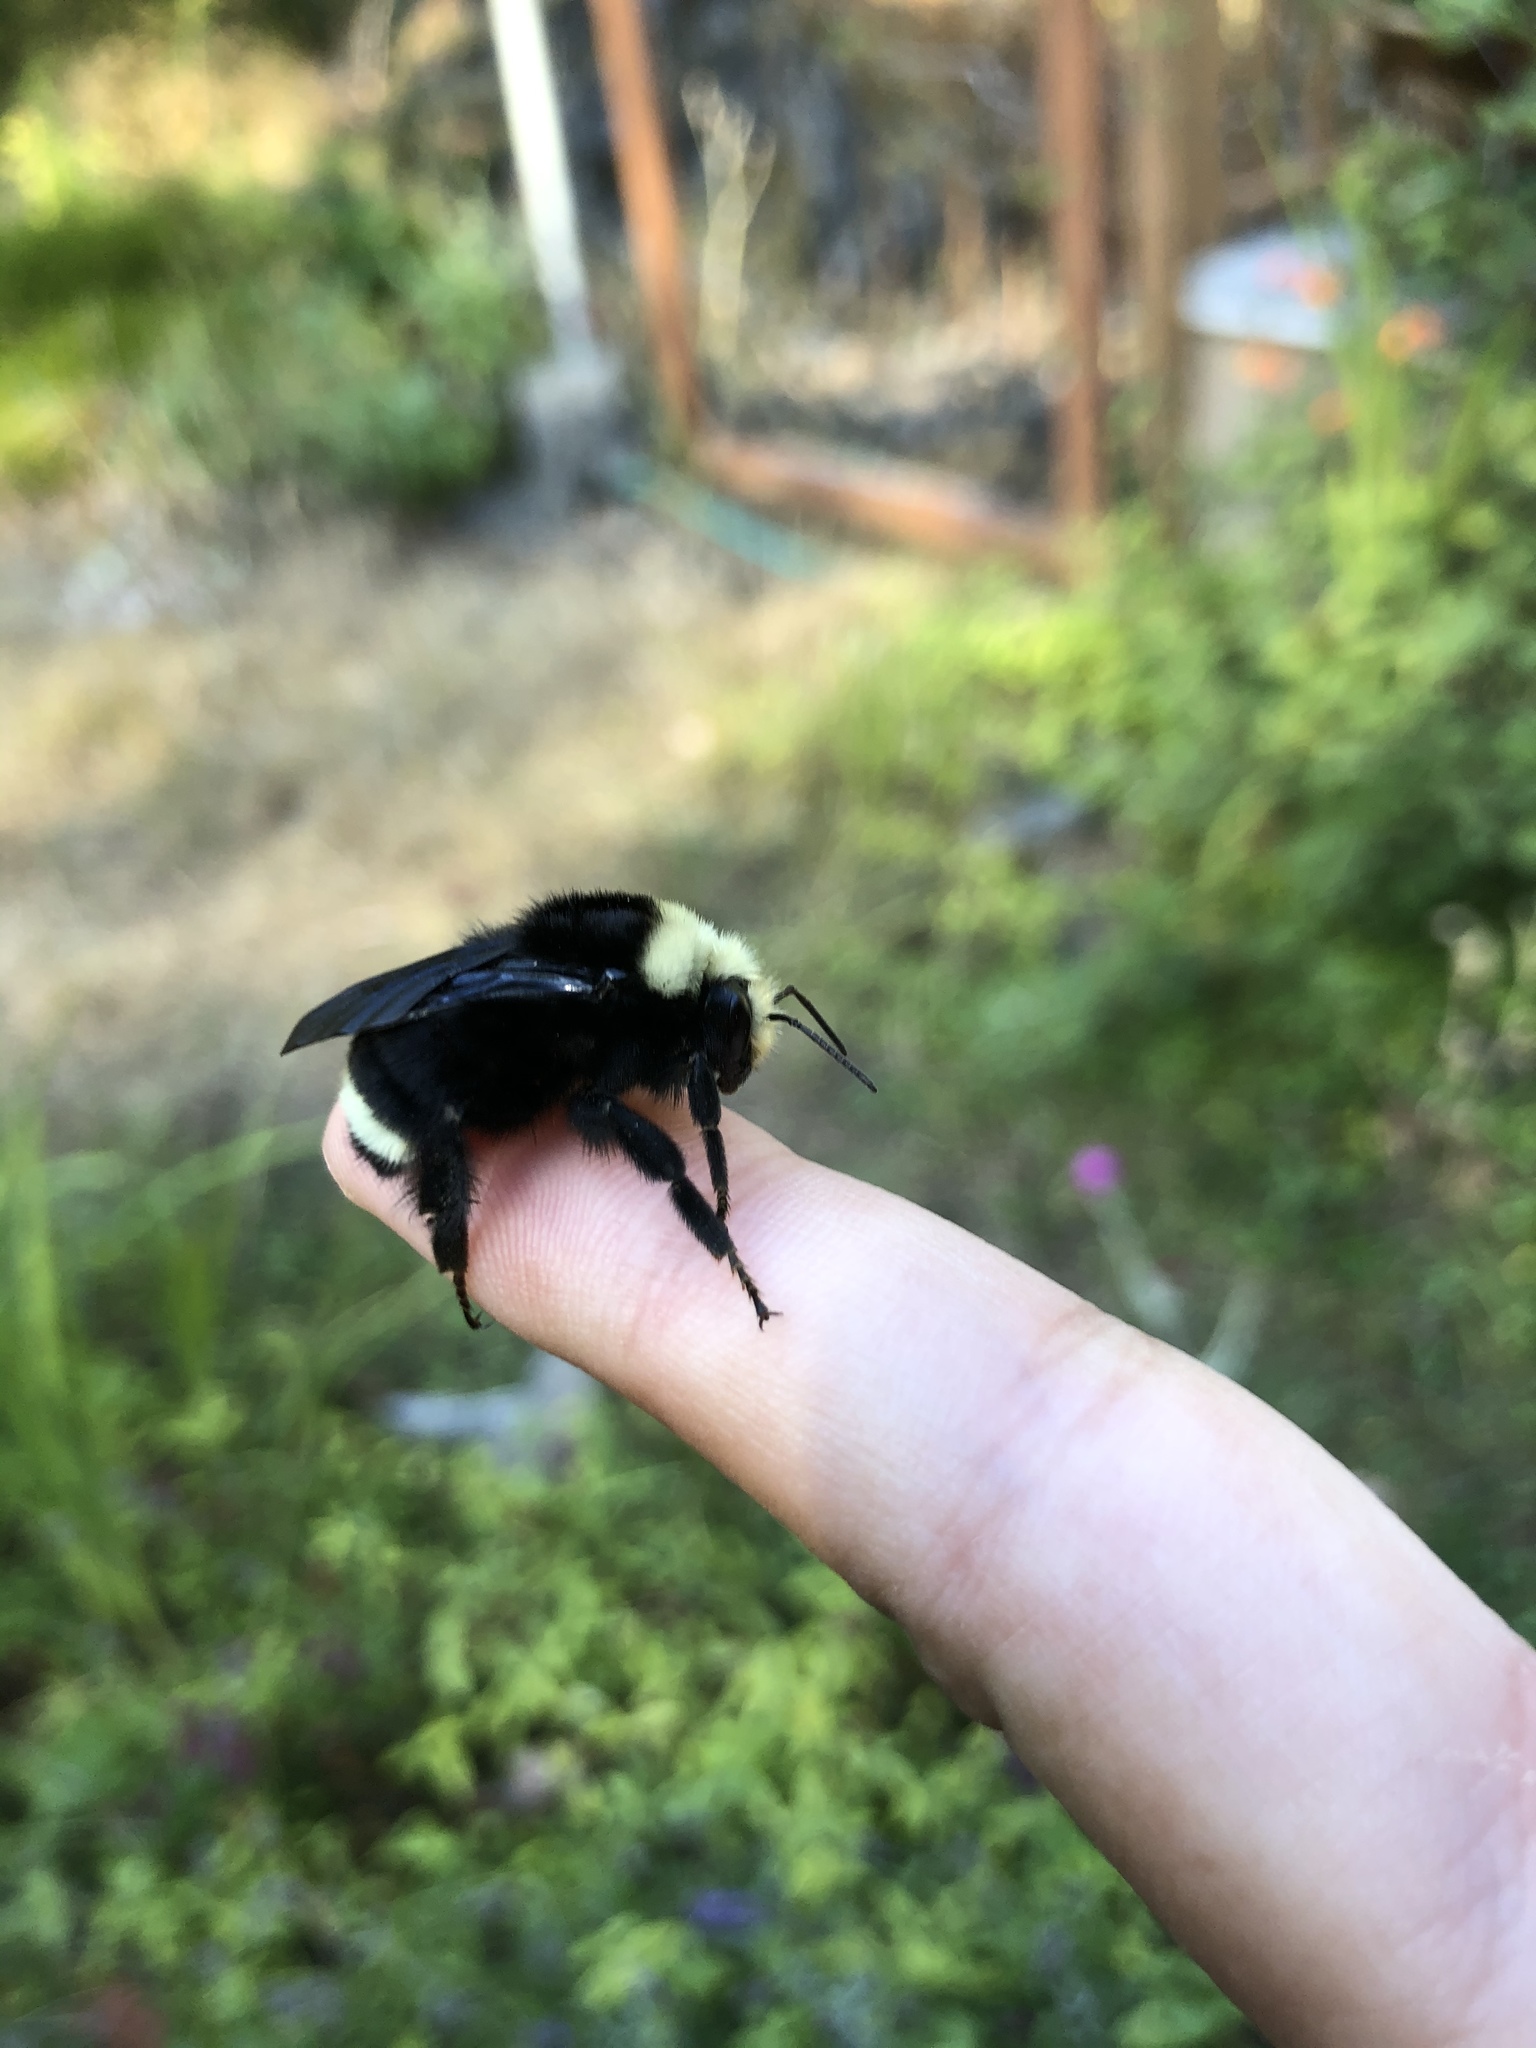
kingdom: Animalia
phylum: Arthropoda
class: Insecta
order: Hymenoptera
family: Apidae
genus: Bombus
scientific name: Bombus vosnesenskii
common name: Vosnesensky bumble bee
